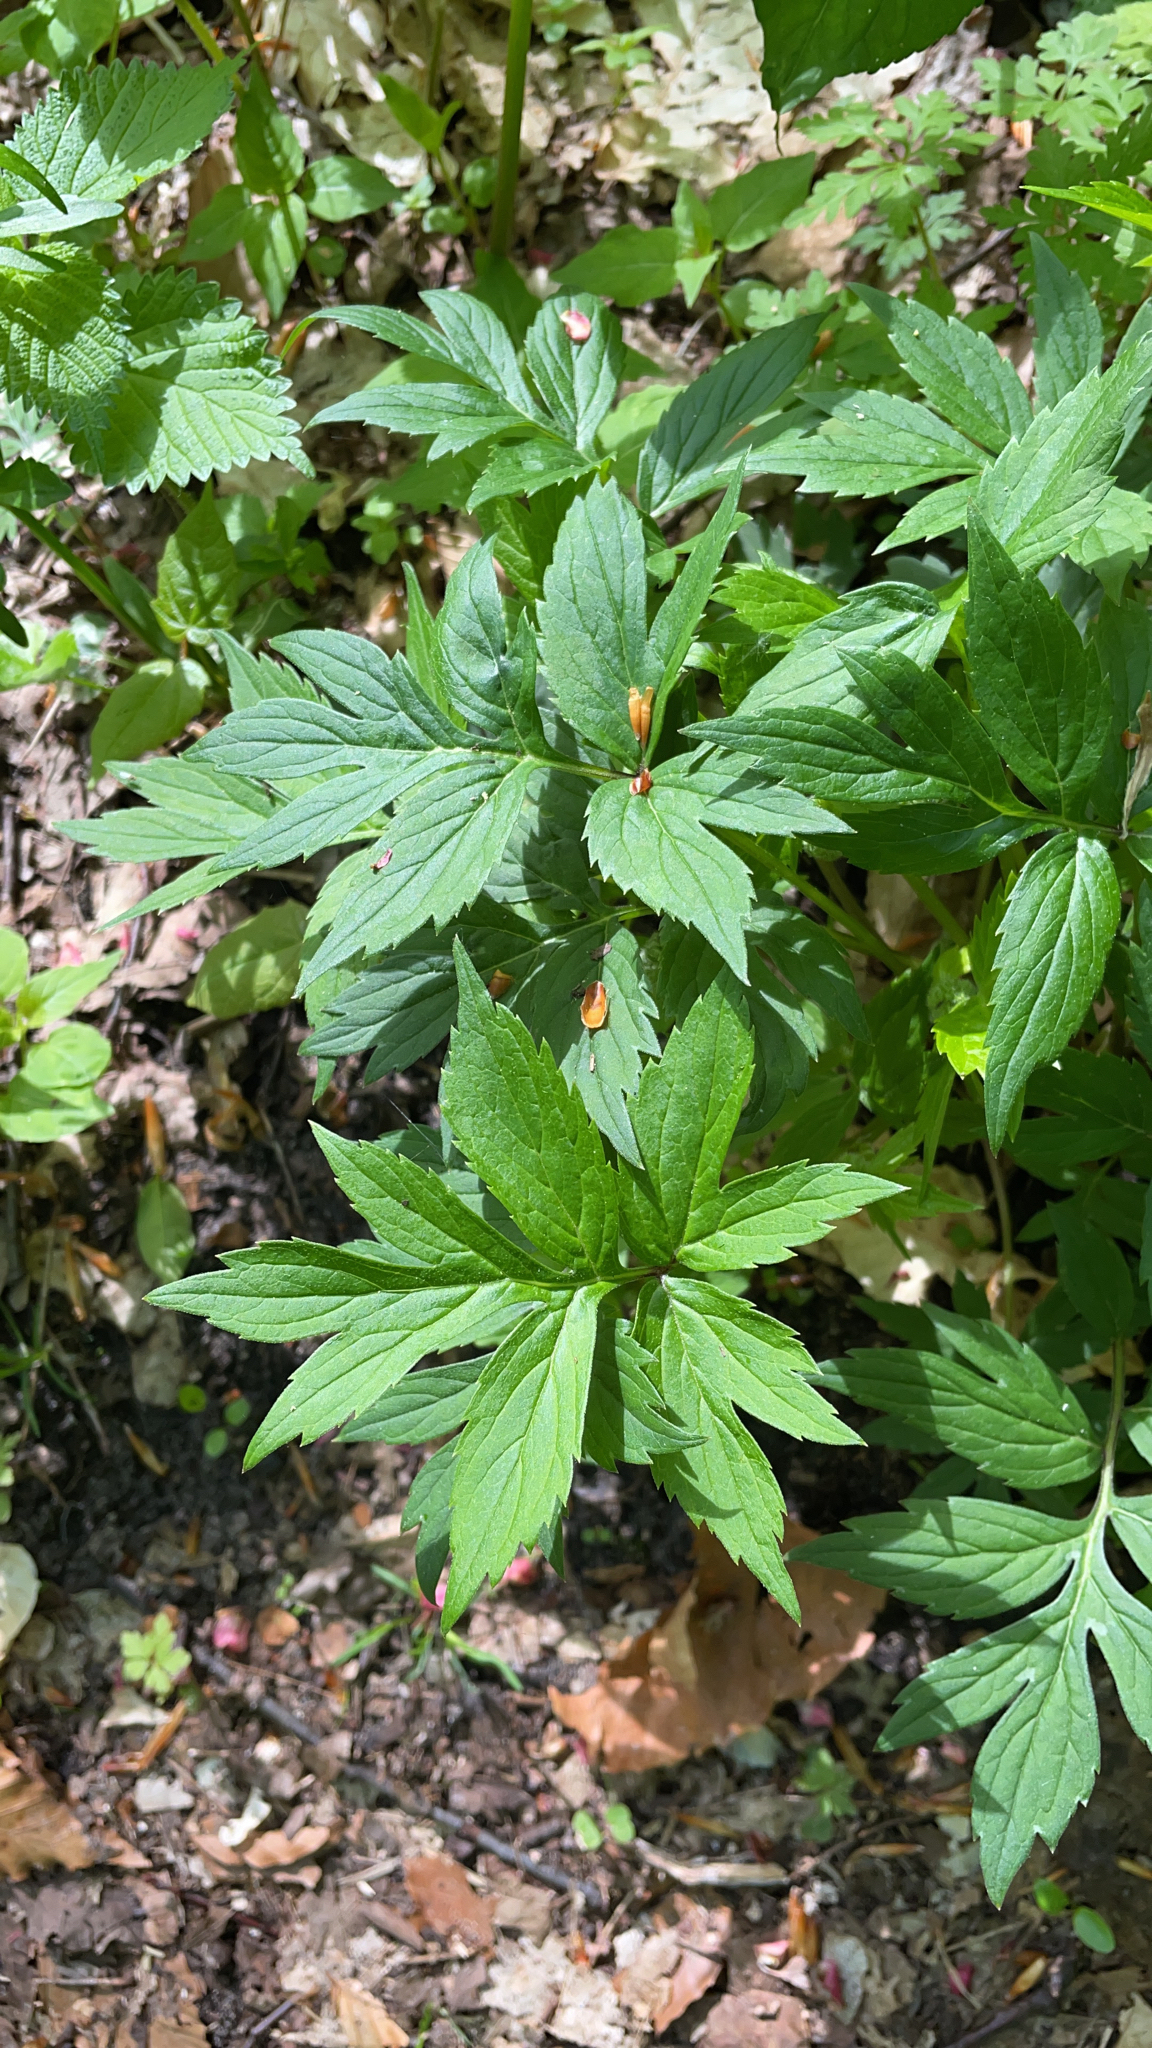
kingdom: Plantae
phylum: Tracheophyta
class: Magnoliopsida
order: Boraginales
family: Hydrophyllaceae
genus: Hydrophyllum
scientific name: Hydrophyllum virginianum
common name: Virginia waterleaf
